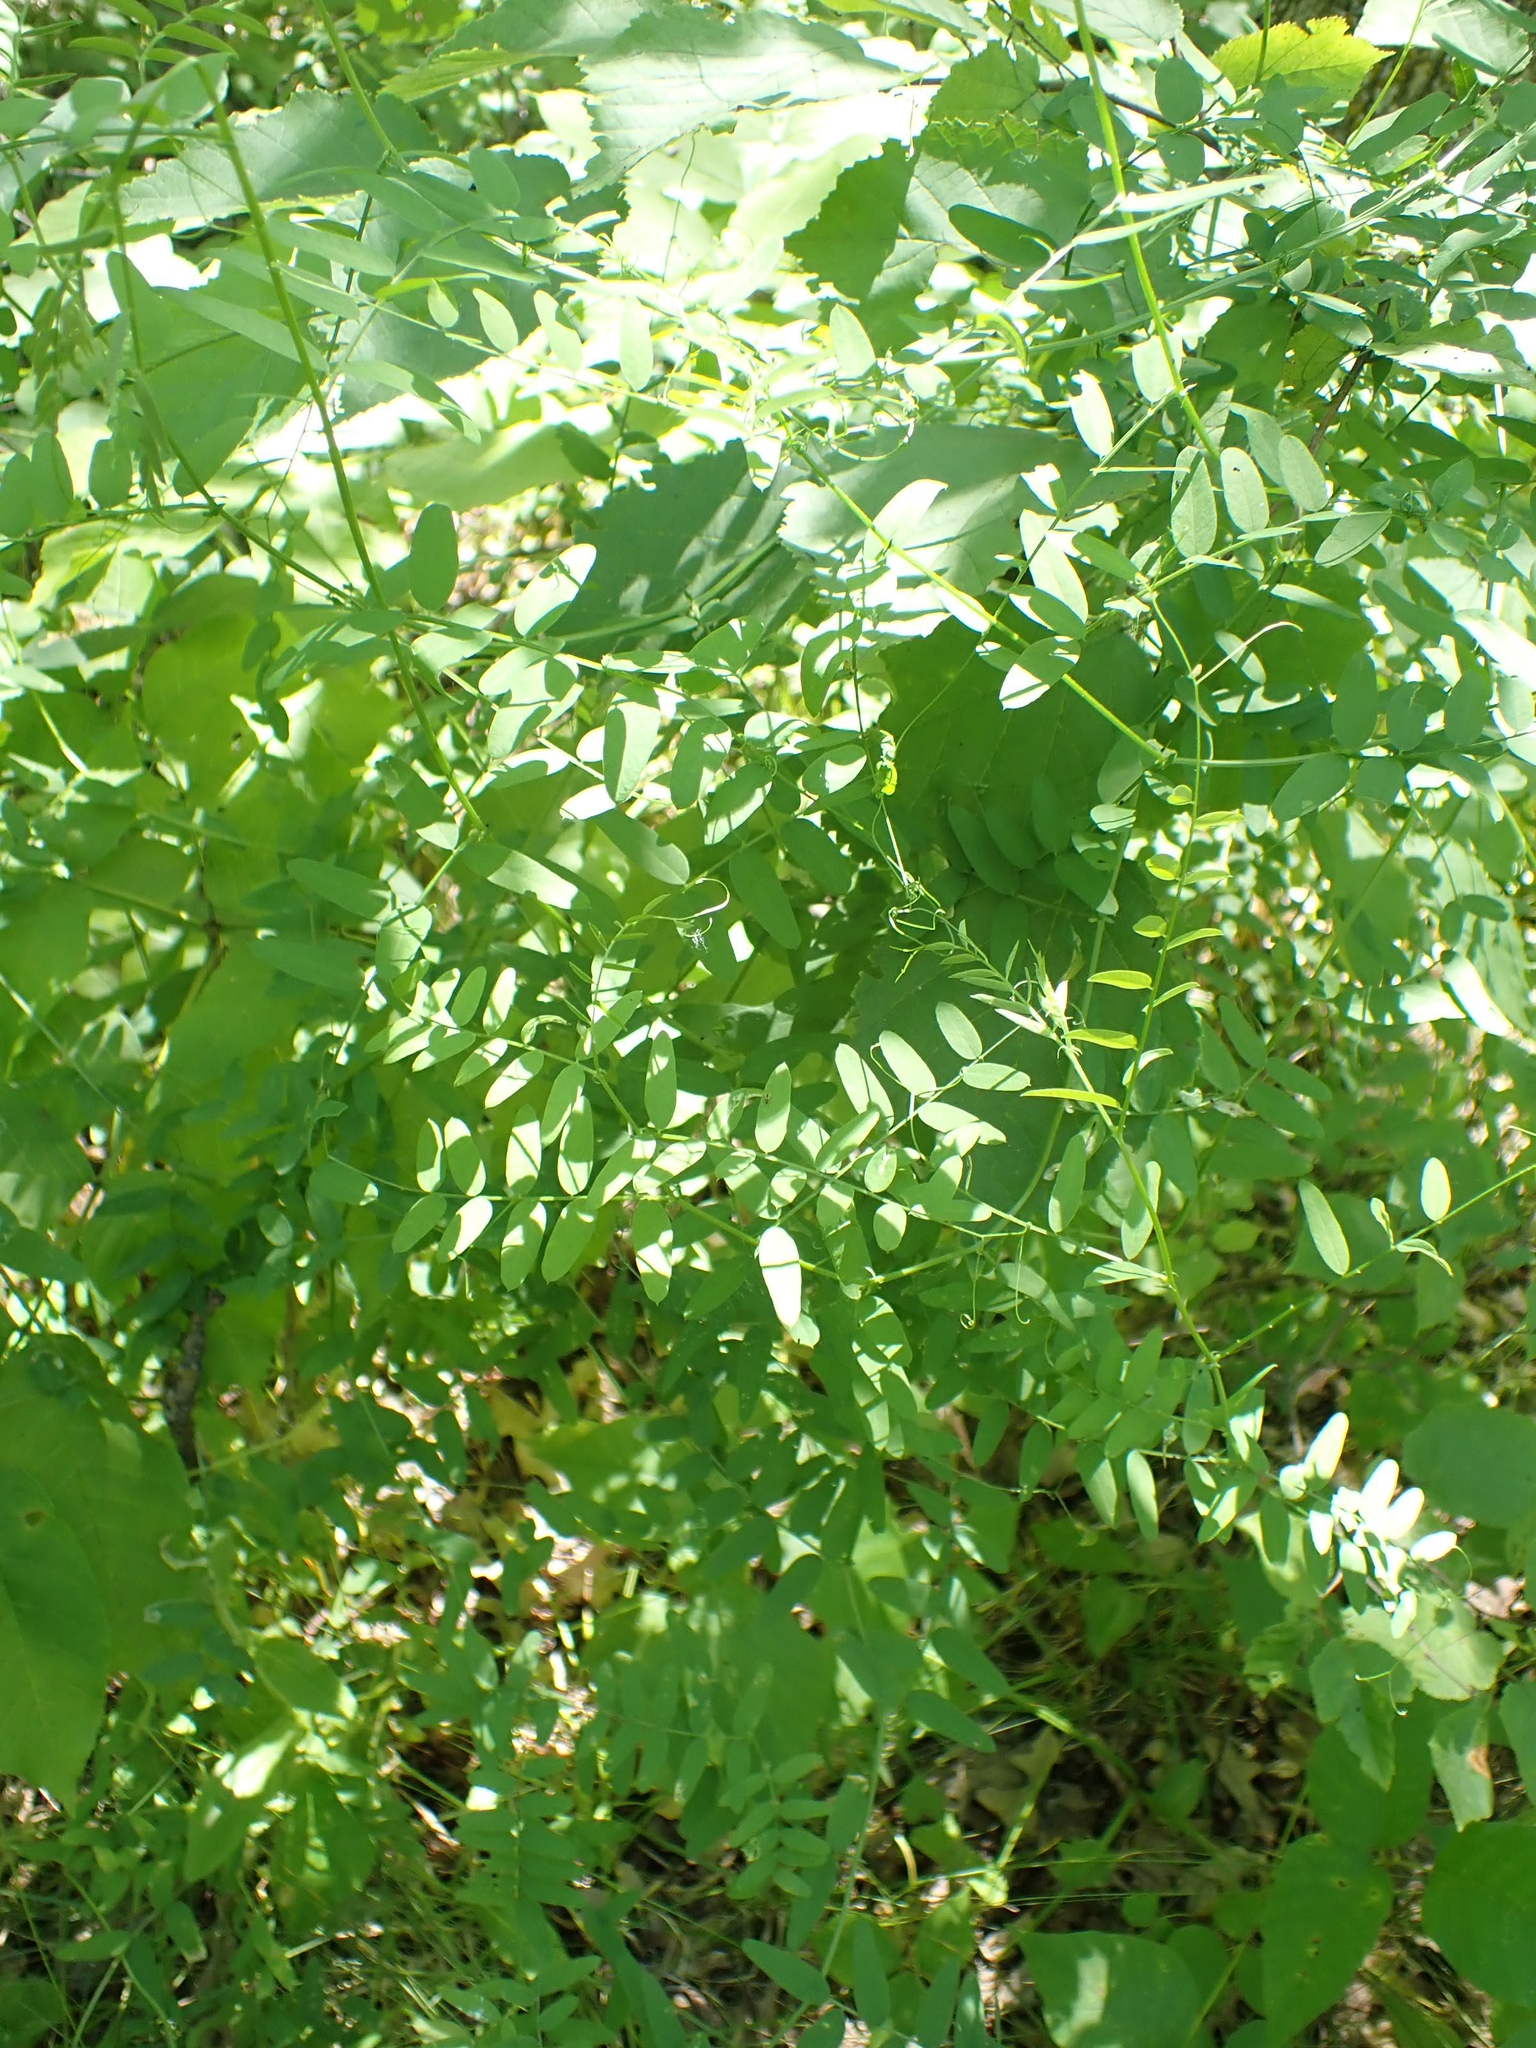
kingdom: Plantae
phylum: Tracheophyta
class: Magnoliopsida
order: Fabales
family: Fabaceae
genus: Vicia
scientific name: Vicia americana
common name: American vetch
